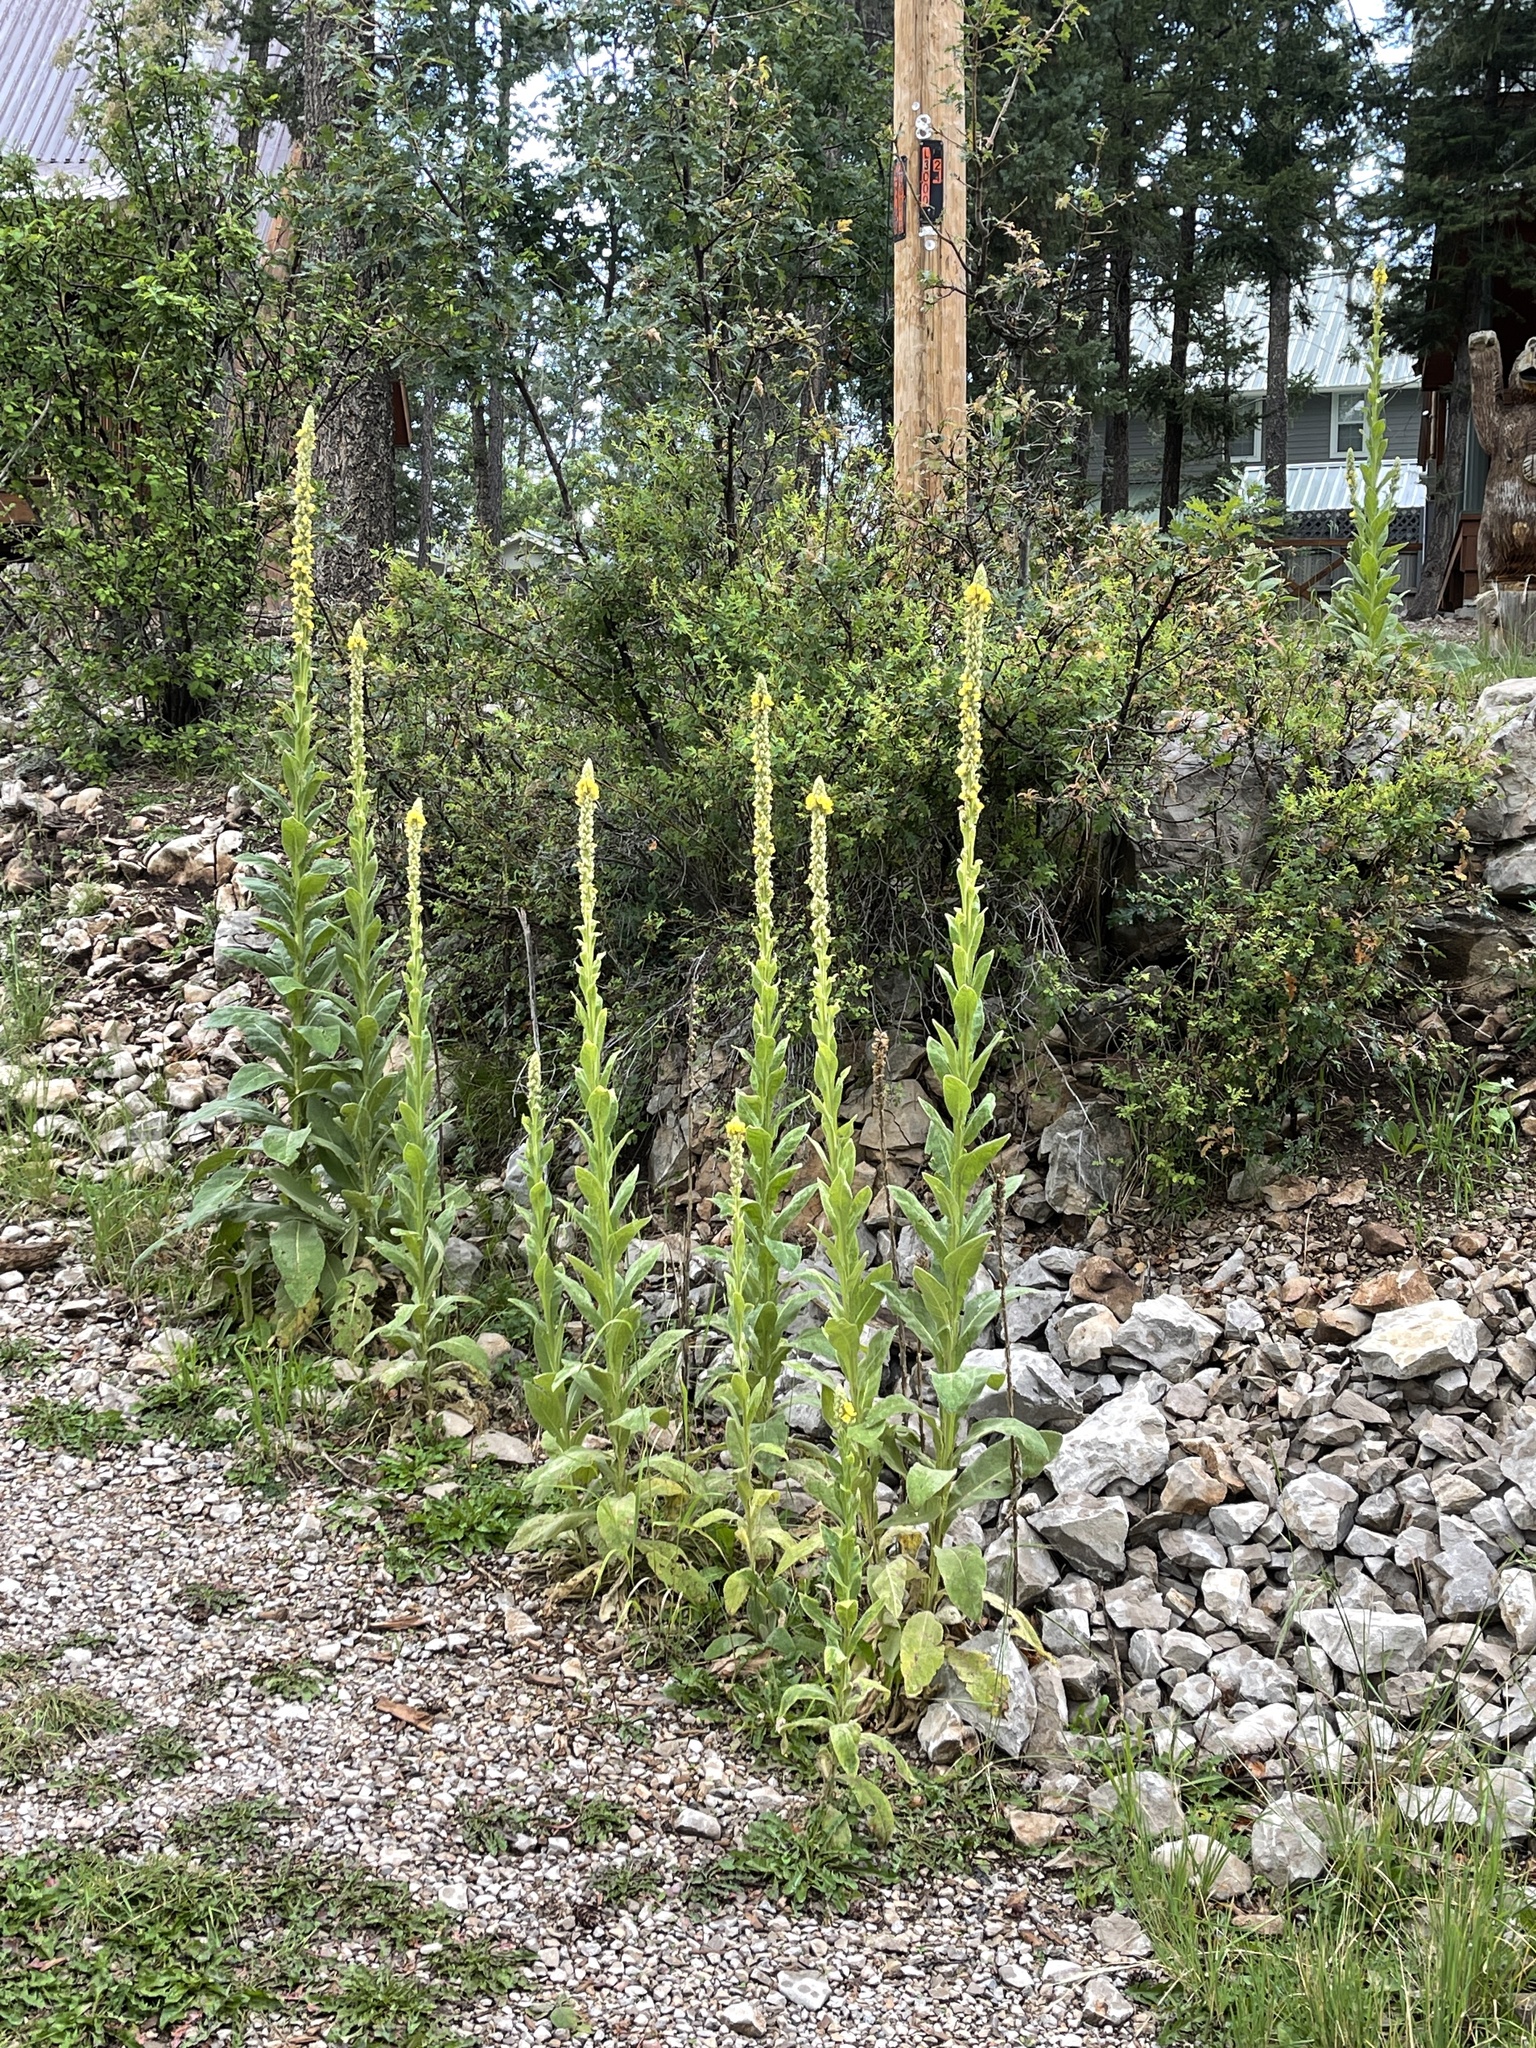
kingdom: Plantae
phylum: Tracheophyta
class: Magnoliopsida
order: Lamiales
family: Scrophulariaceae
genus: Verbascum
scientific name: Verbascum thapsus
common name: Common mullein
